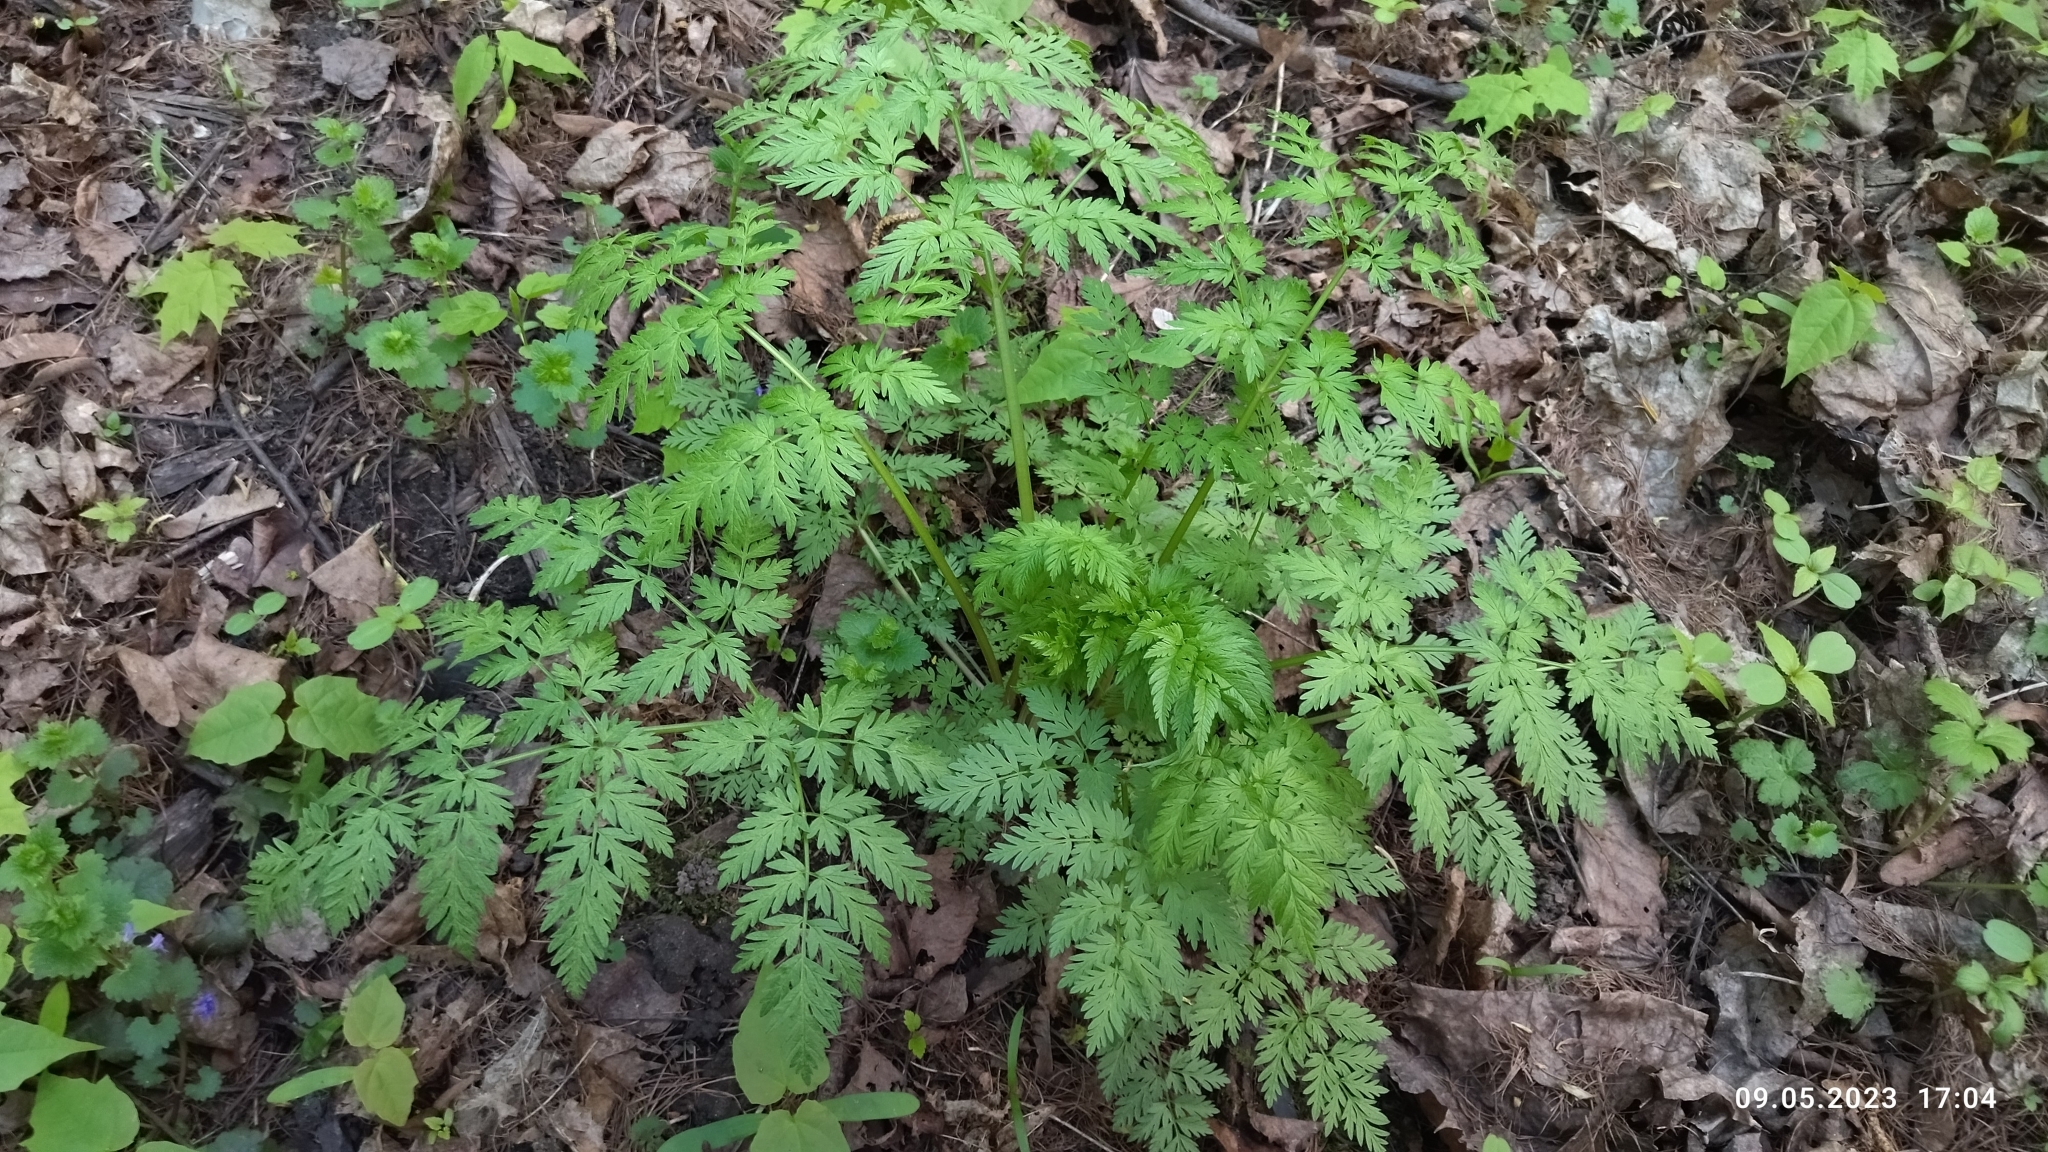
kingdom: Plantae
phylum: Tracheophyta
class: Magnoliopsida
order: Apiales
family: Apiaceae
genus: Anthriscus
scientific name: Anthriscus sylvestris
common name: Cow parsley
